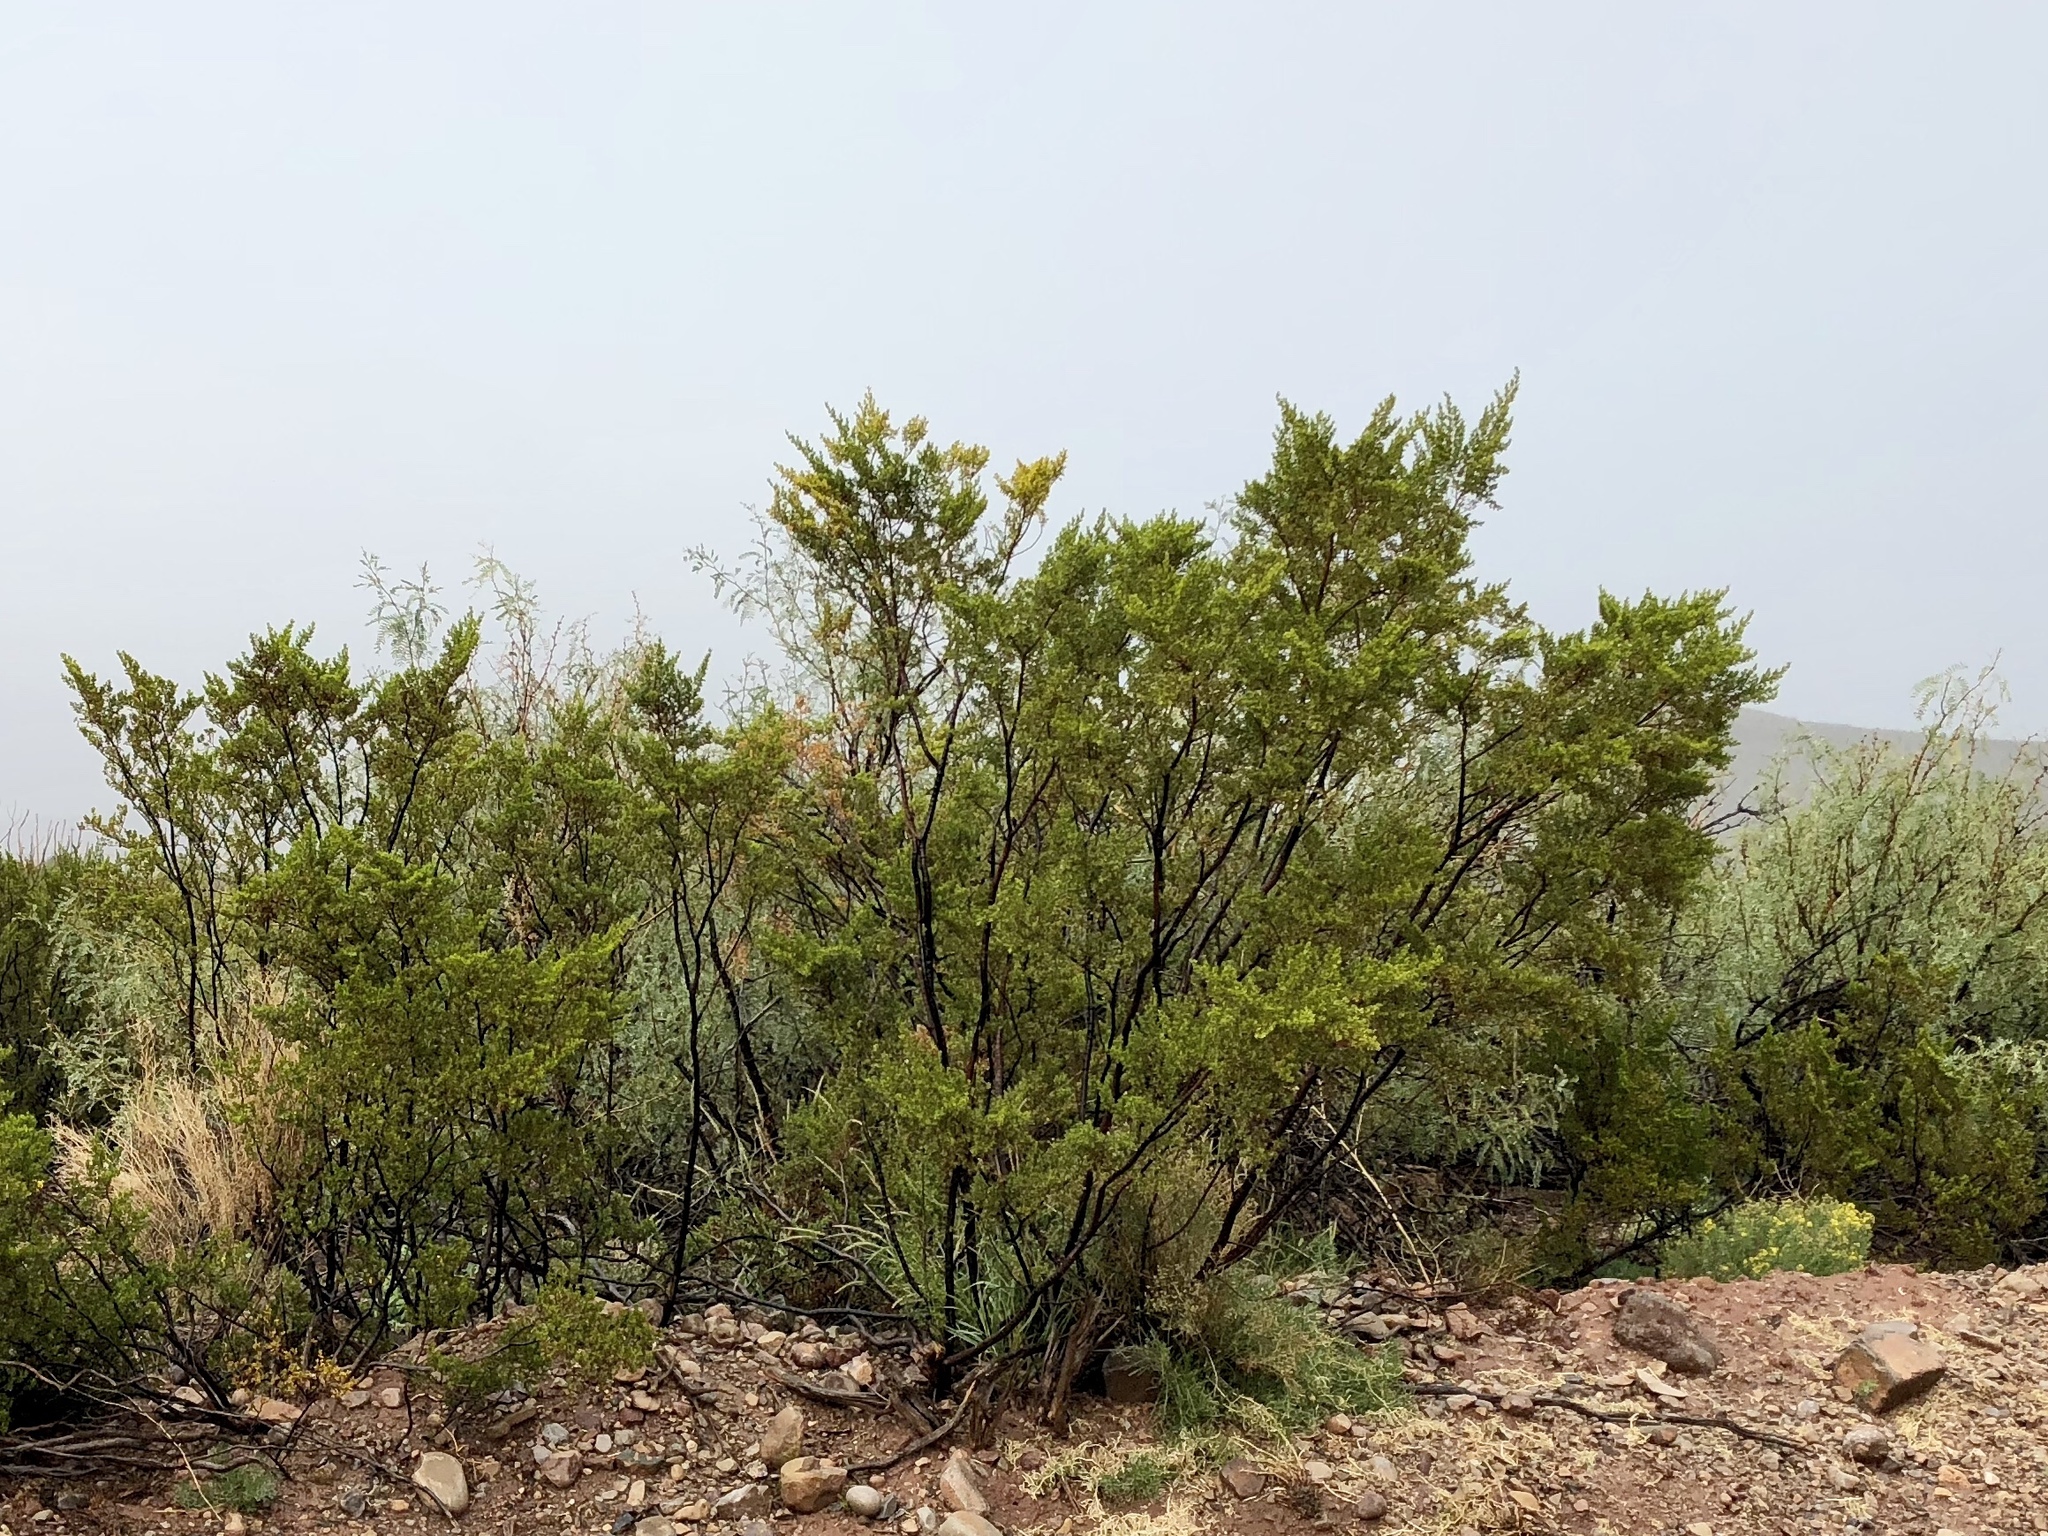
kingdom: Plantae
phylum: Tracheophyta
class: Magnoliopsida
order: Zygophyllales
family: Zygophyllaceae
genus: Larrea
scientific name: Larrea tridentata
